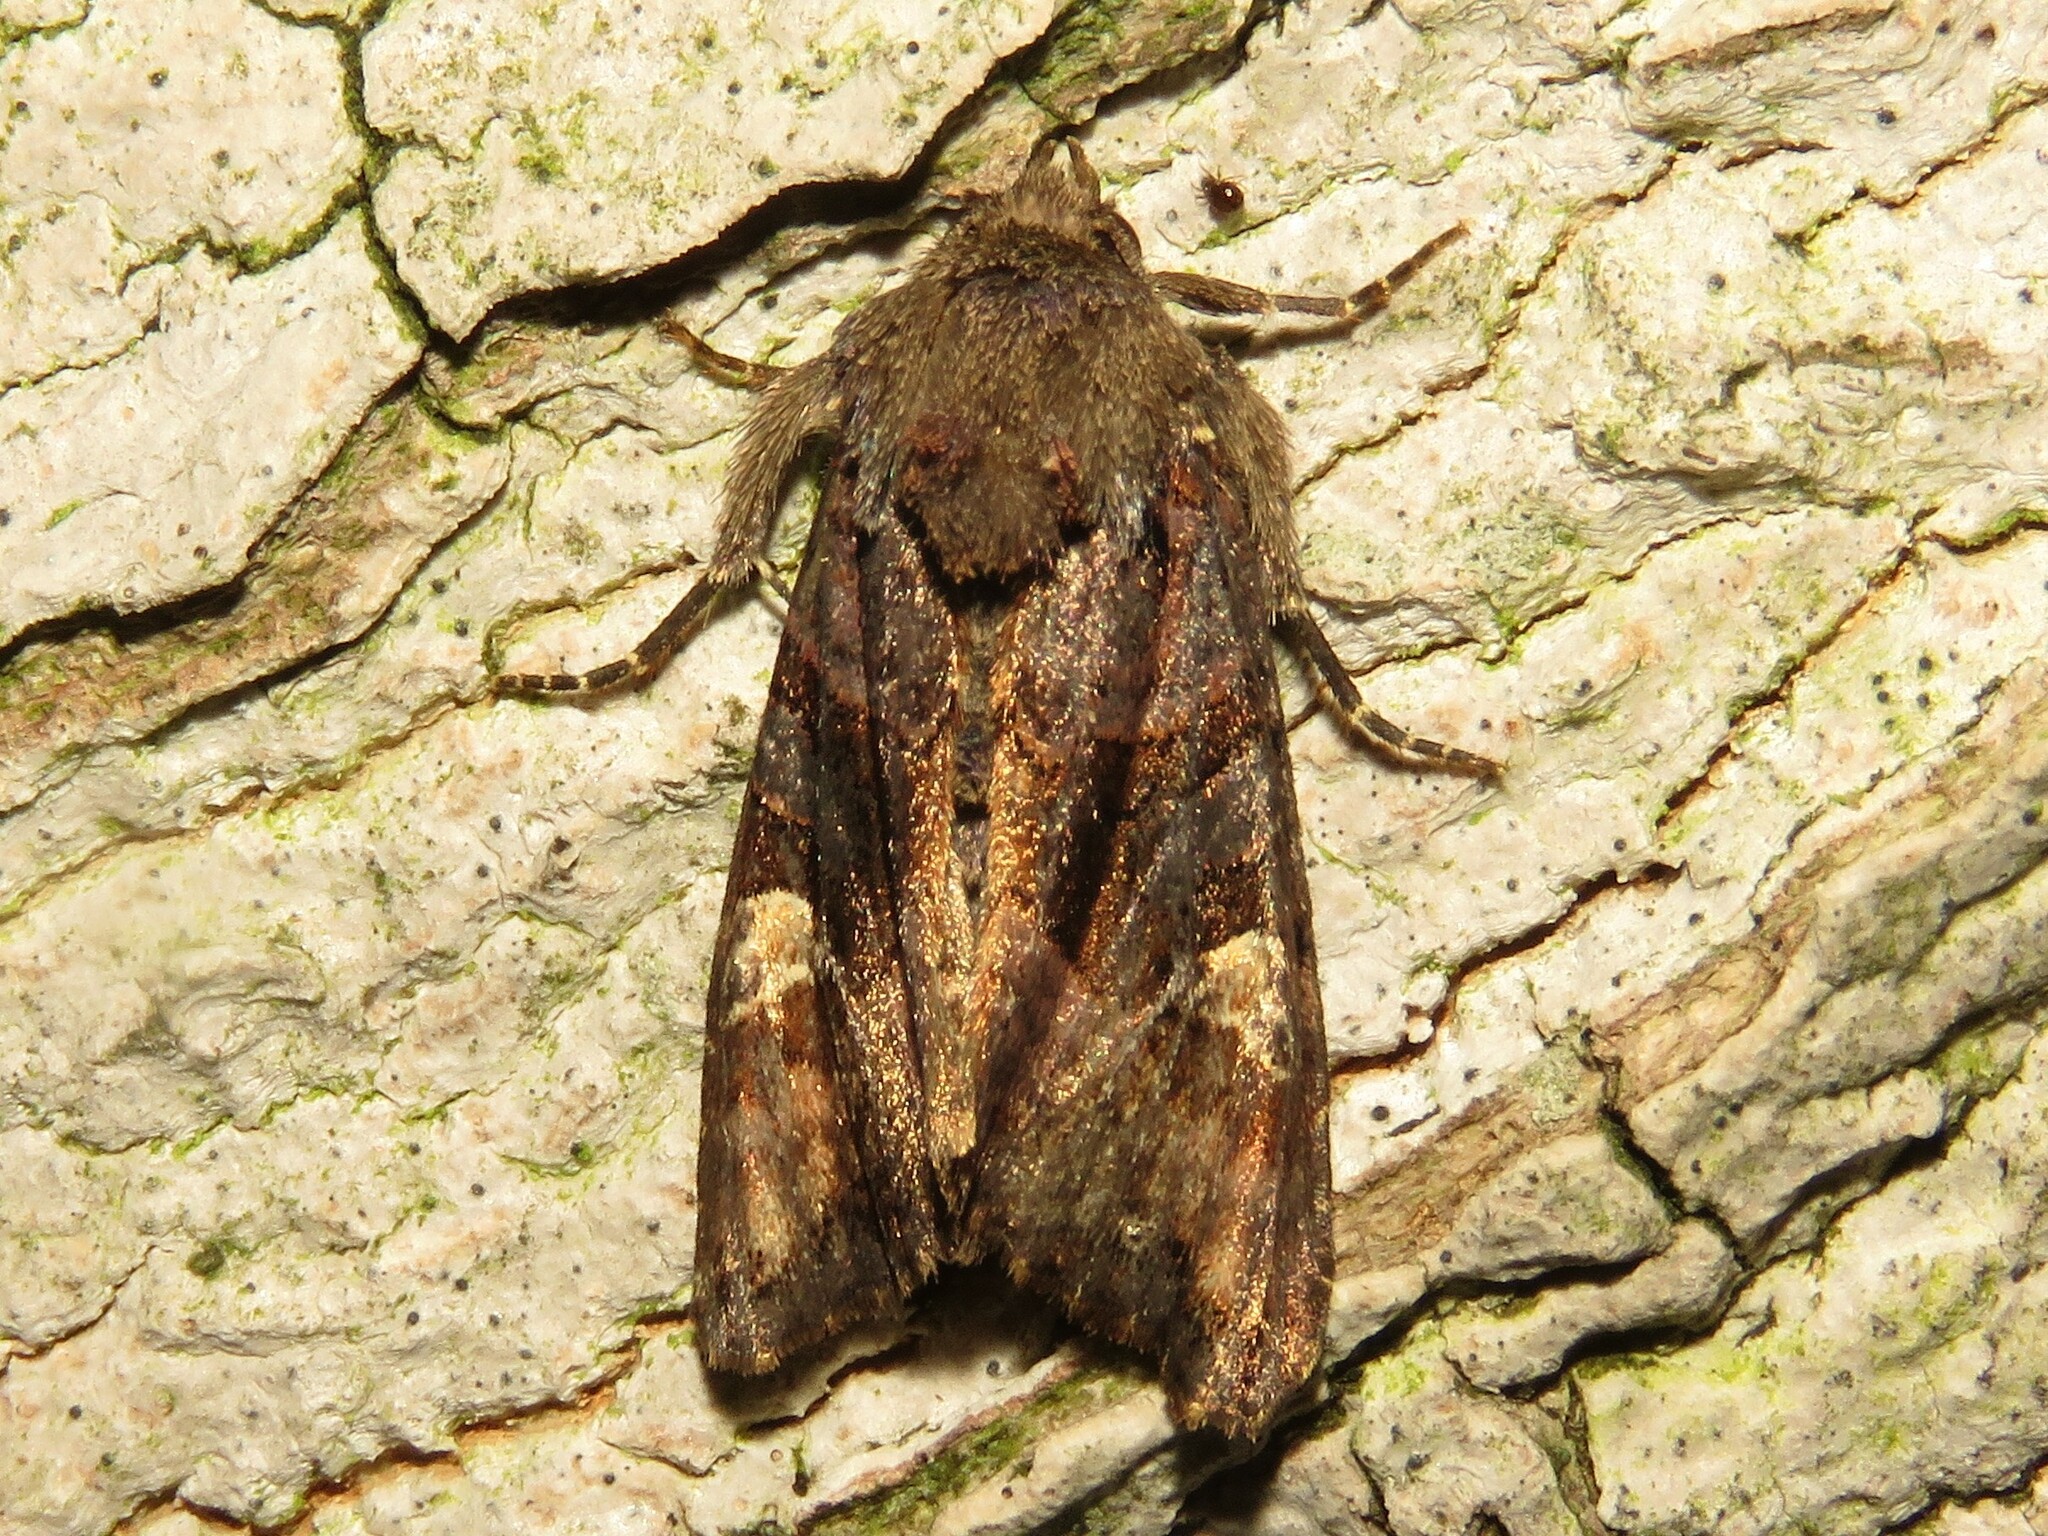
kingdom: Animalia
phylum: Arthropoda
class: Insecta
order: Lepidoptera
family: Noctuidae
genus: Euplexia
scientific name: Euplexia benesimilis
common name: American angle shades
